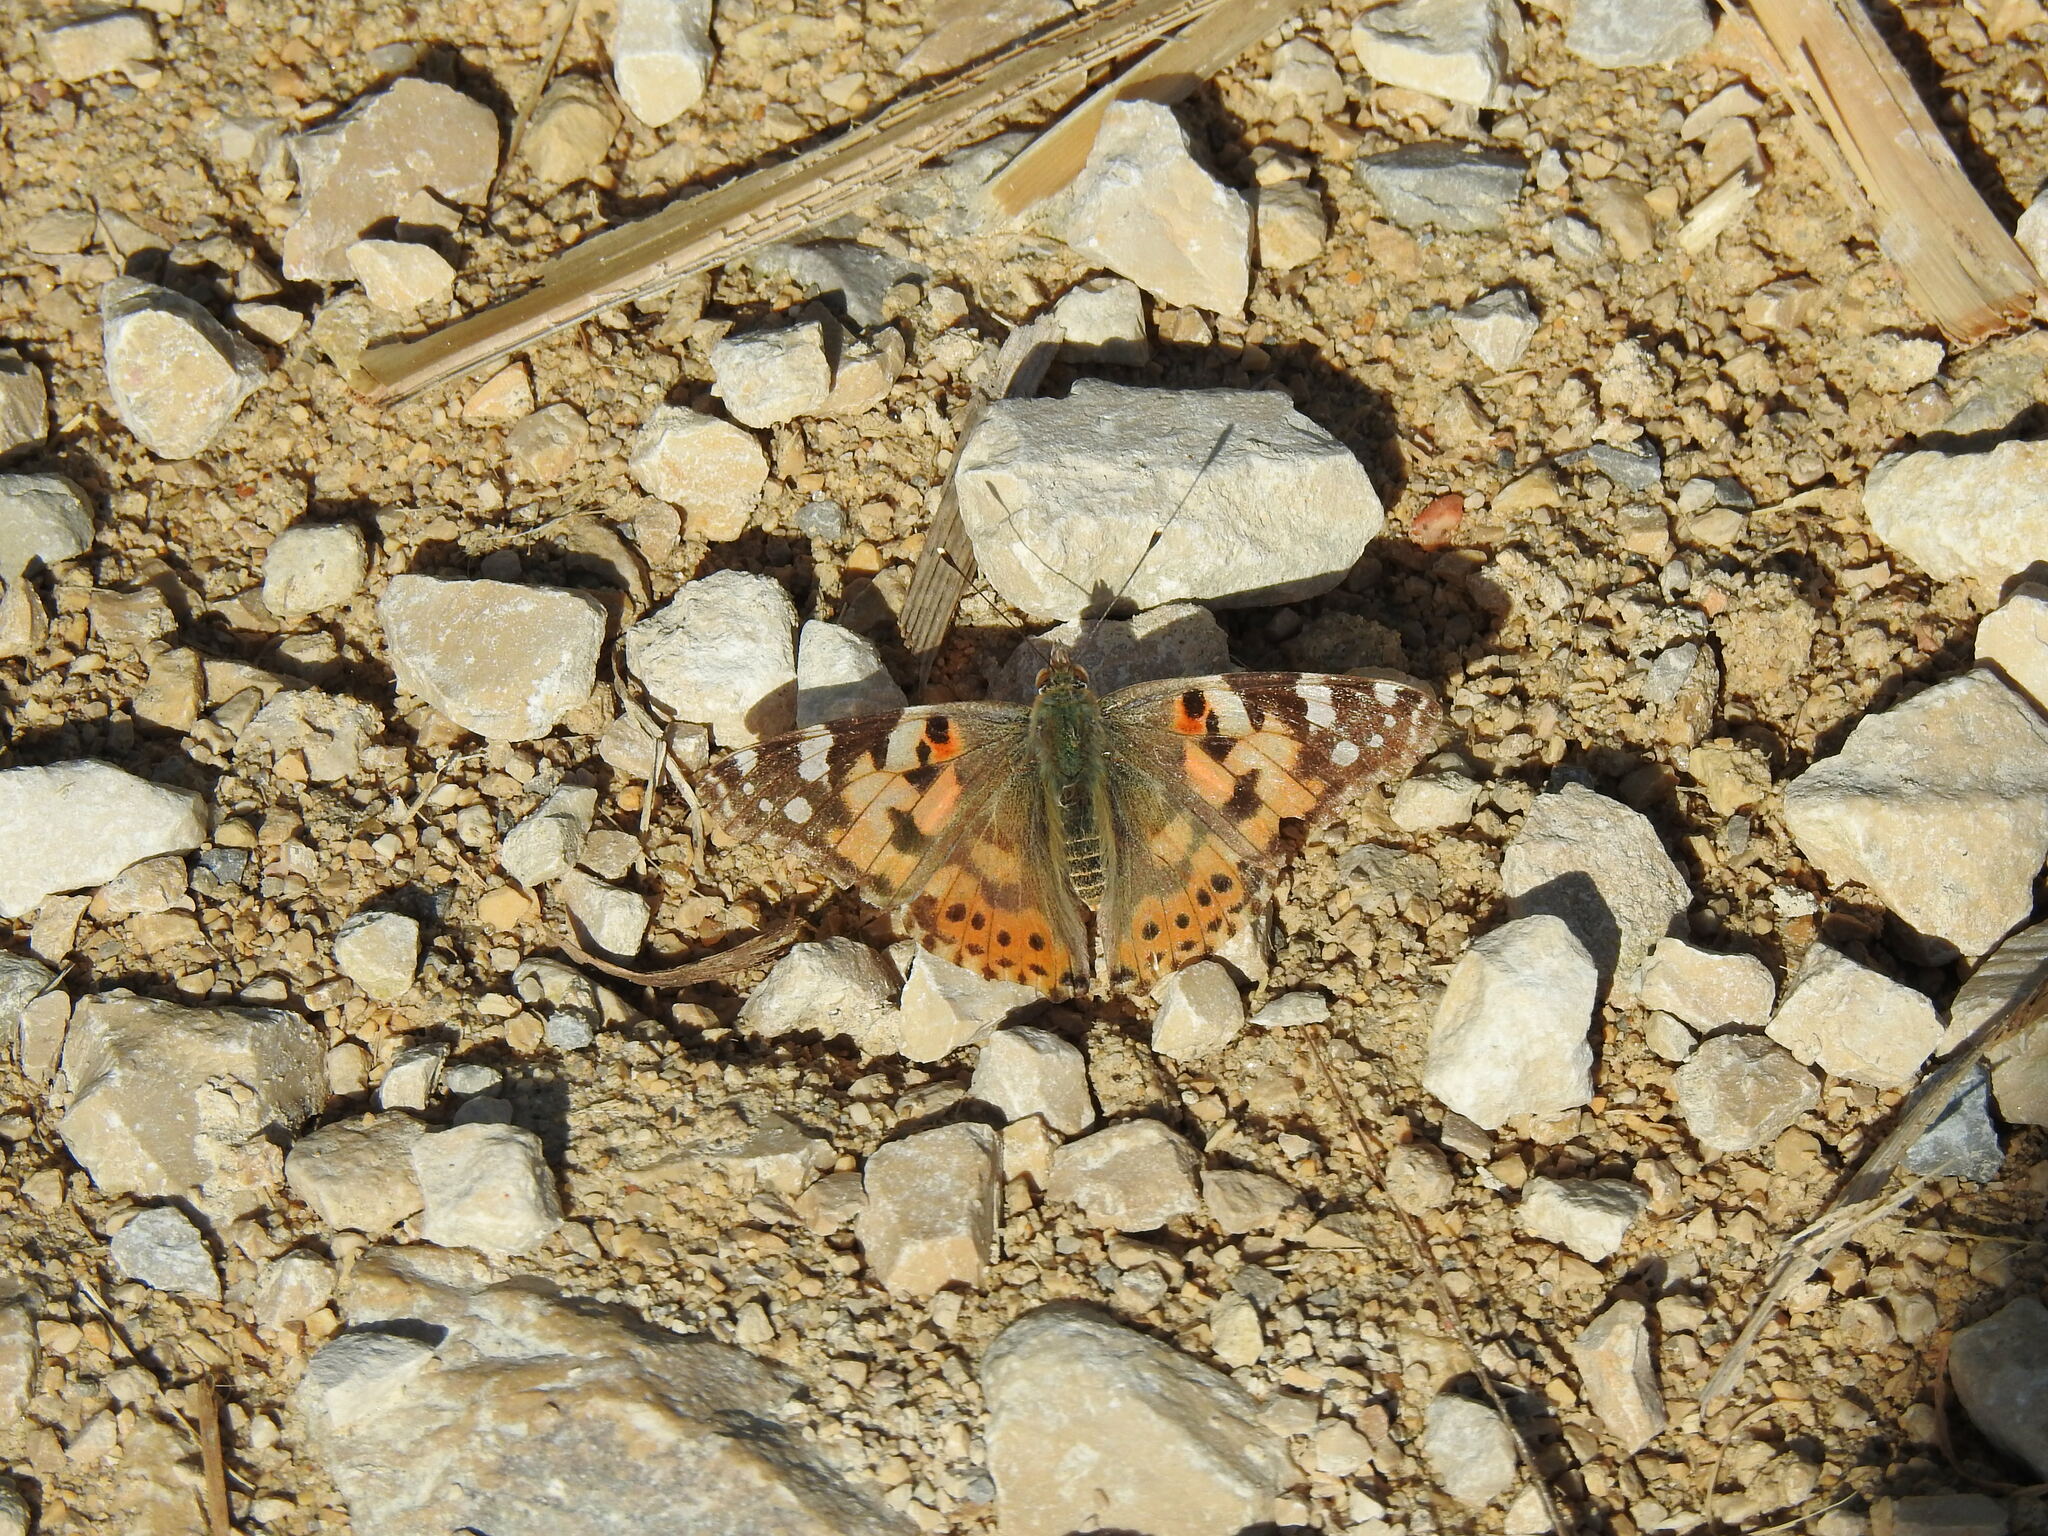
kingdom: Animalia
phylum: Arthropoda
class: Insecta
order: Lepidoptera
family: Nymphalidae
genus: Vanessa
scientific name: Vanessa cardui
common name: Painted lady
